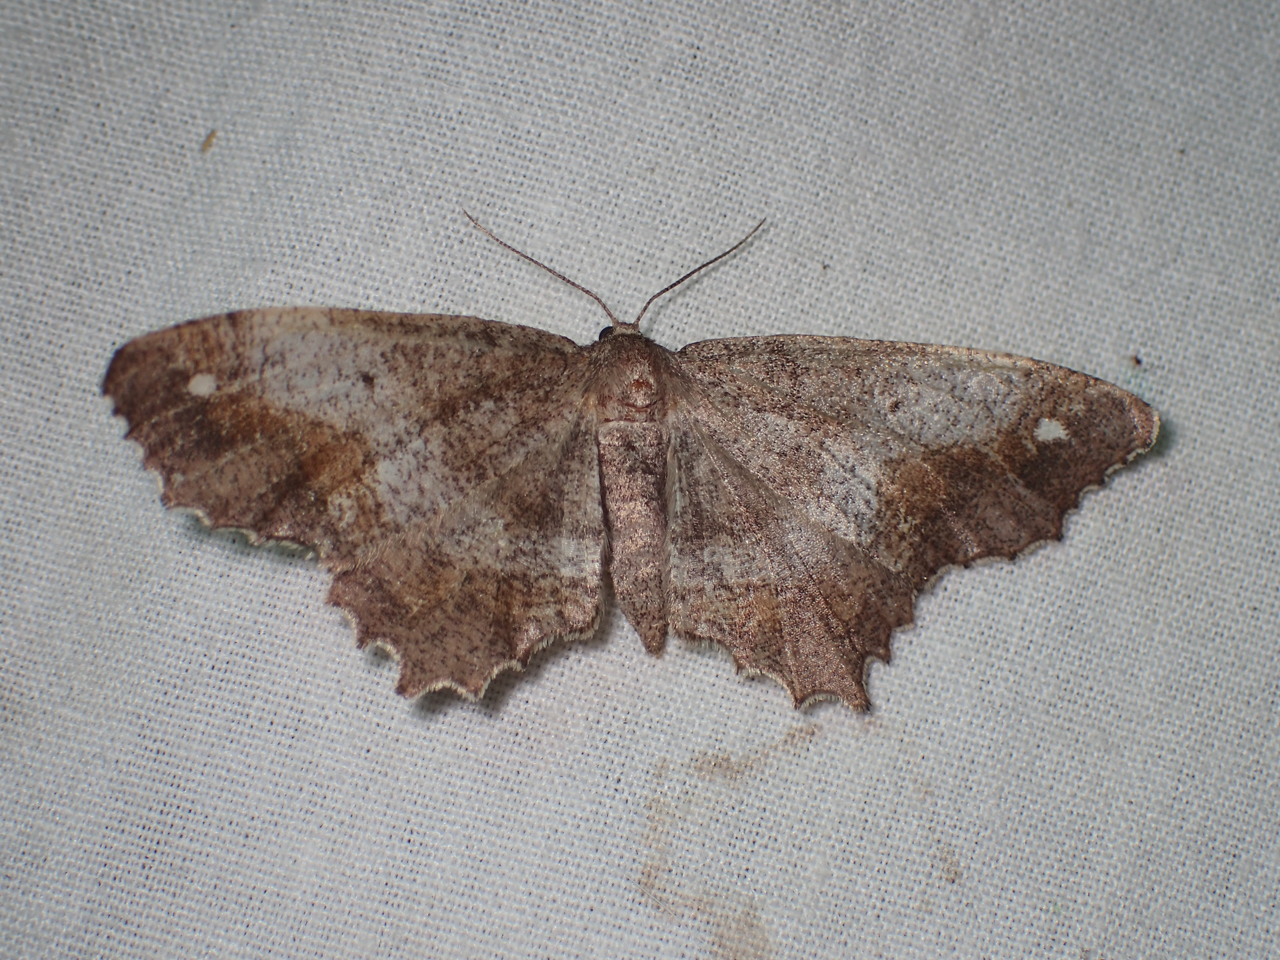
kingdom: Animalia
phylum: Arthropoda
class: Insecta
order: Lepidoptera
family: Geometridae
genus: Hypagyrtis
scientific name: Hypagyrtis
